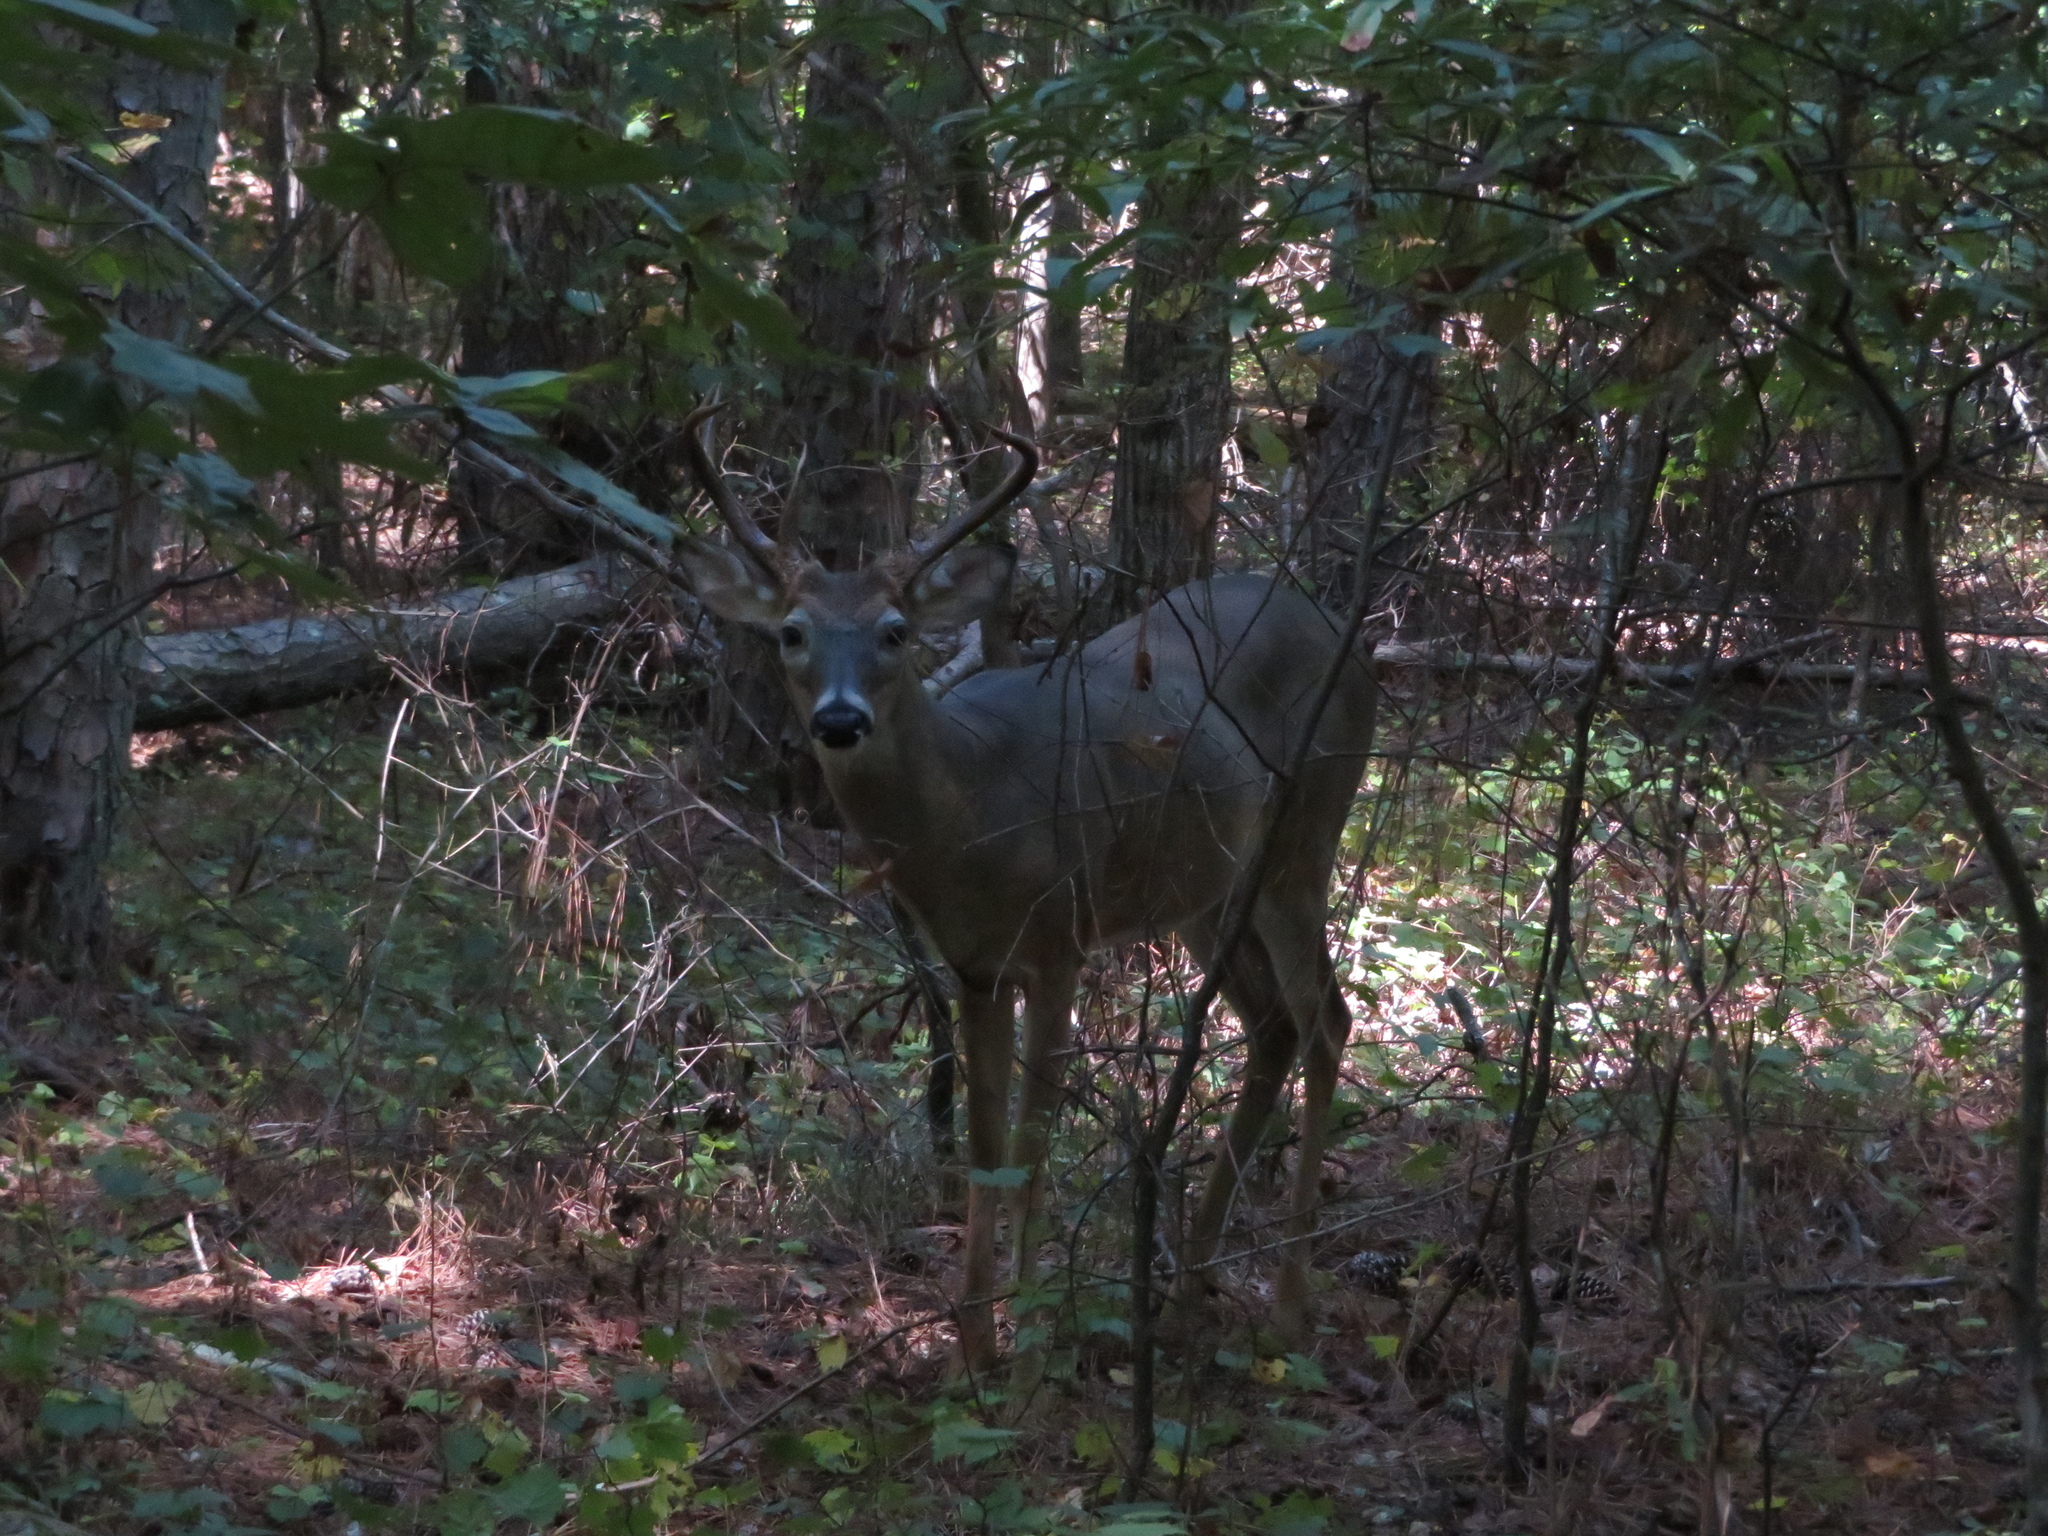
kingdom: Animalia
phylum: Chordata
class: Mammalia
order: Artiodactyla
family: Cervidae
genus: Odocoileus
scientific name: Odocoileus virginianus
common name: White-tailed deer
